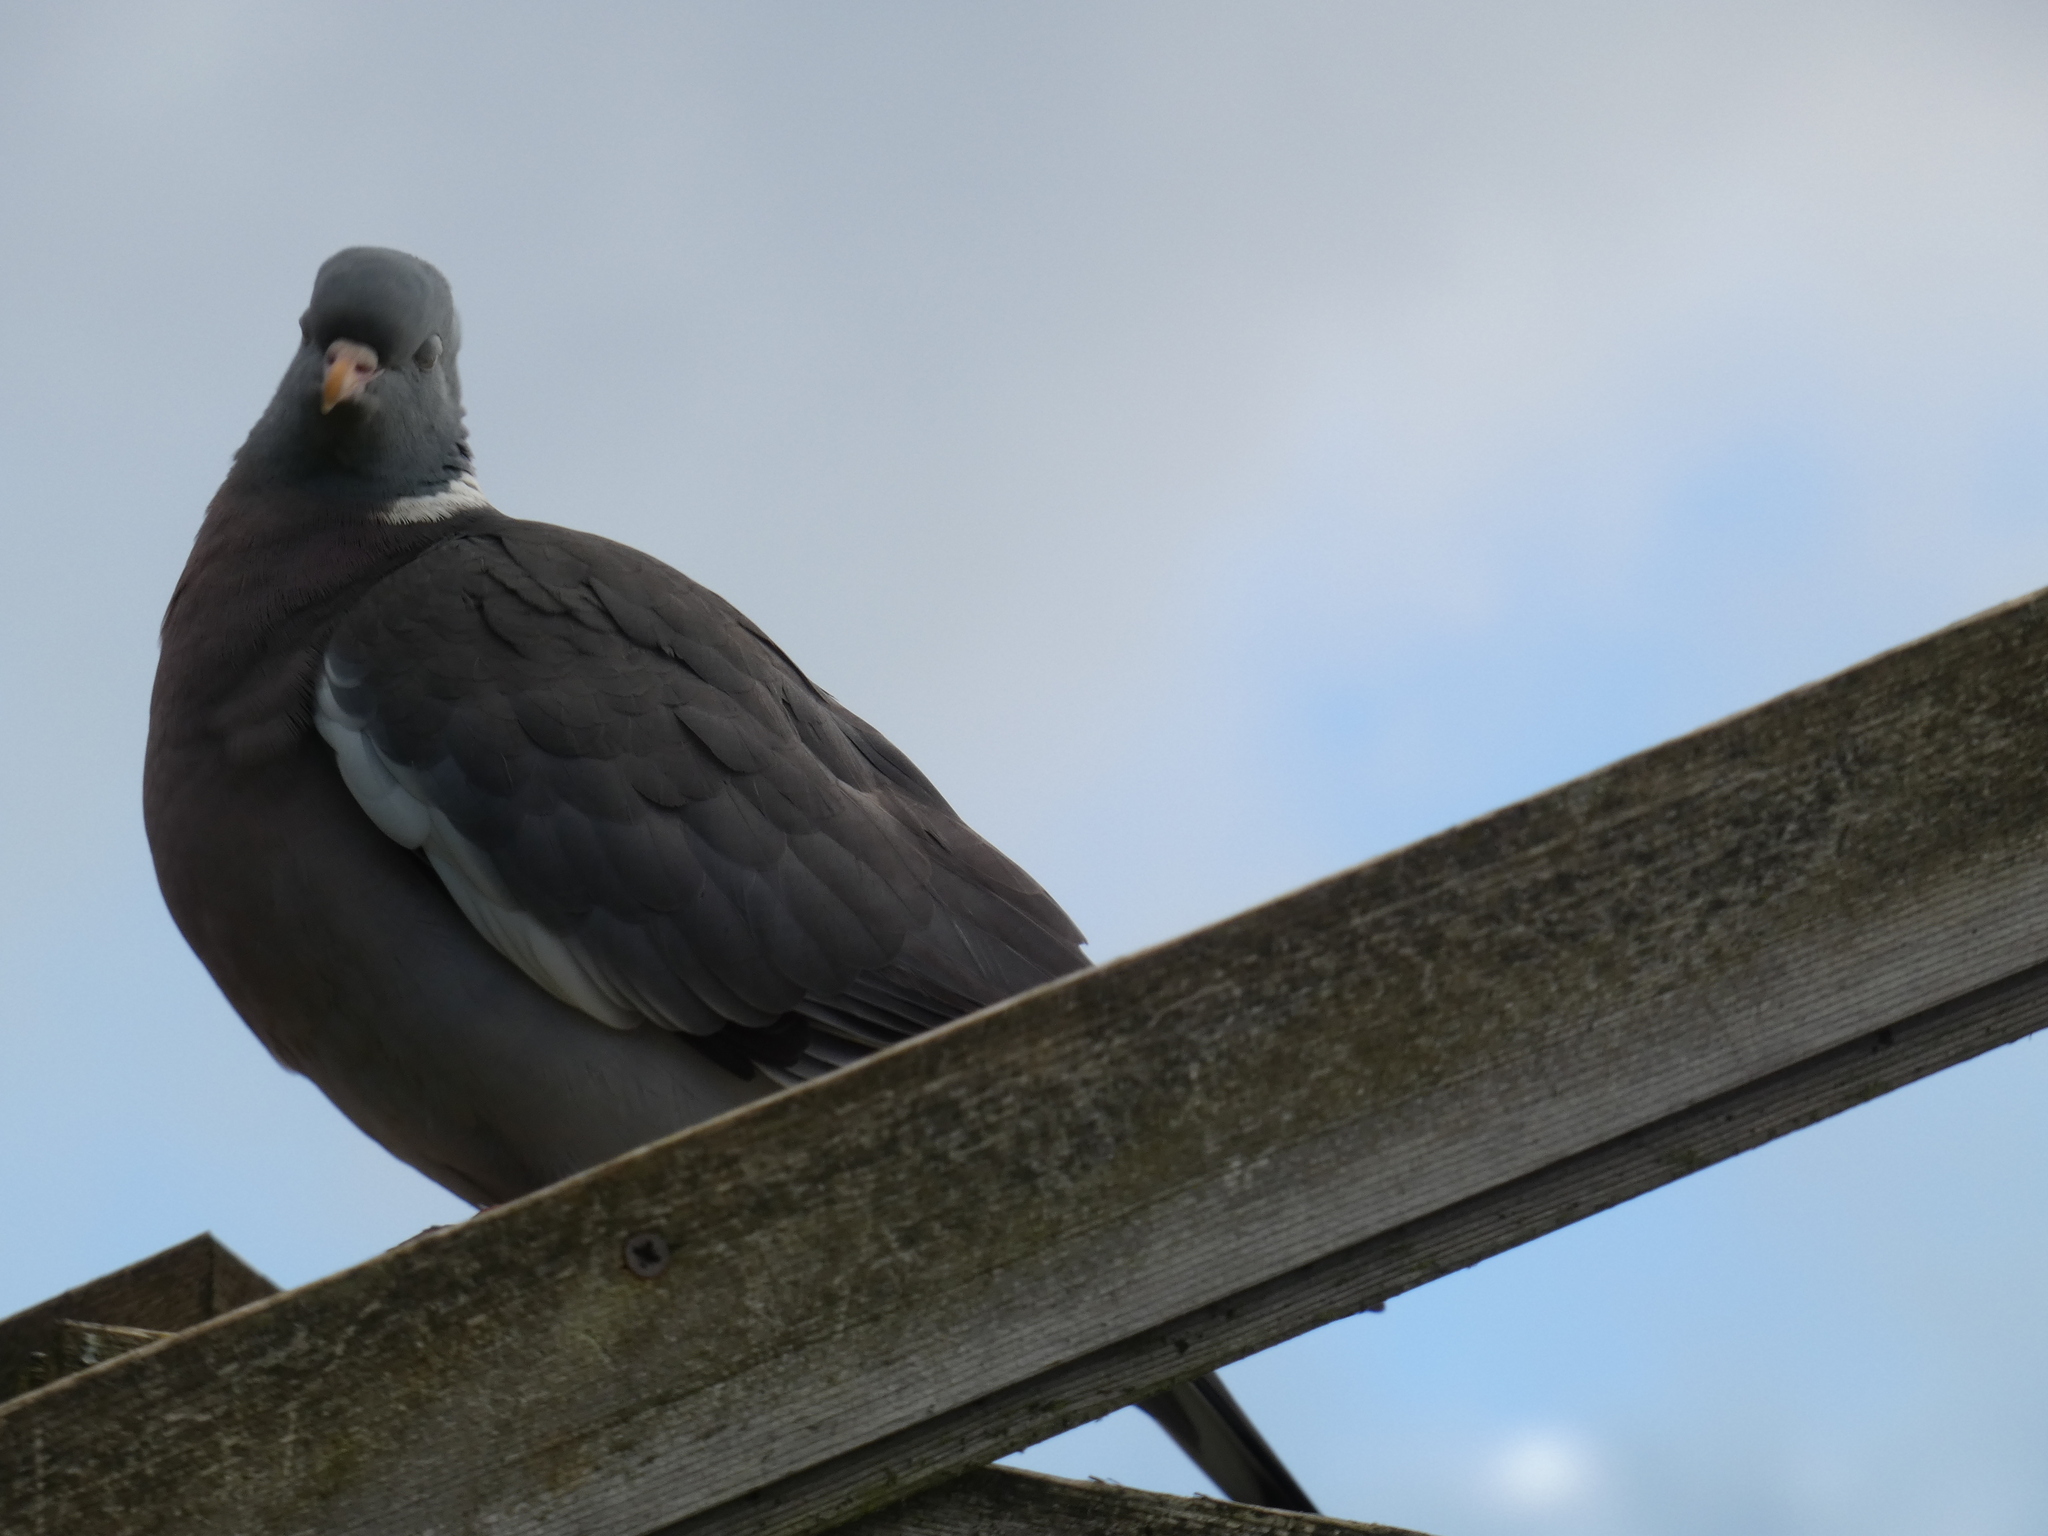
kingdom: Animalia
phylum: Chordata
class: Aves
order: Columbiformes
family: Columbidae
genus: Columba
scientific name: Columba palumbus
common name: Common wood pigeon
